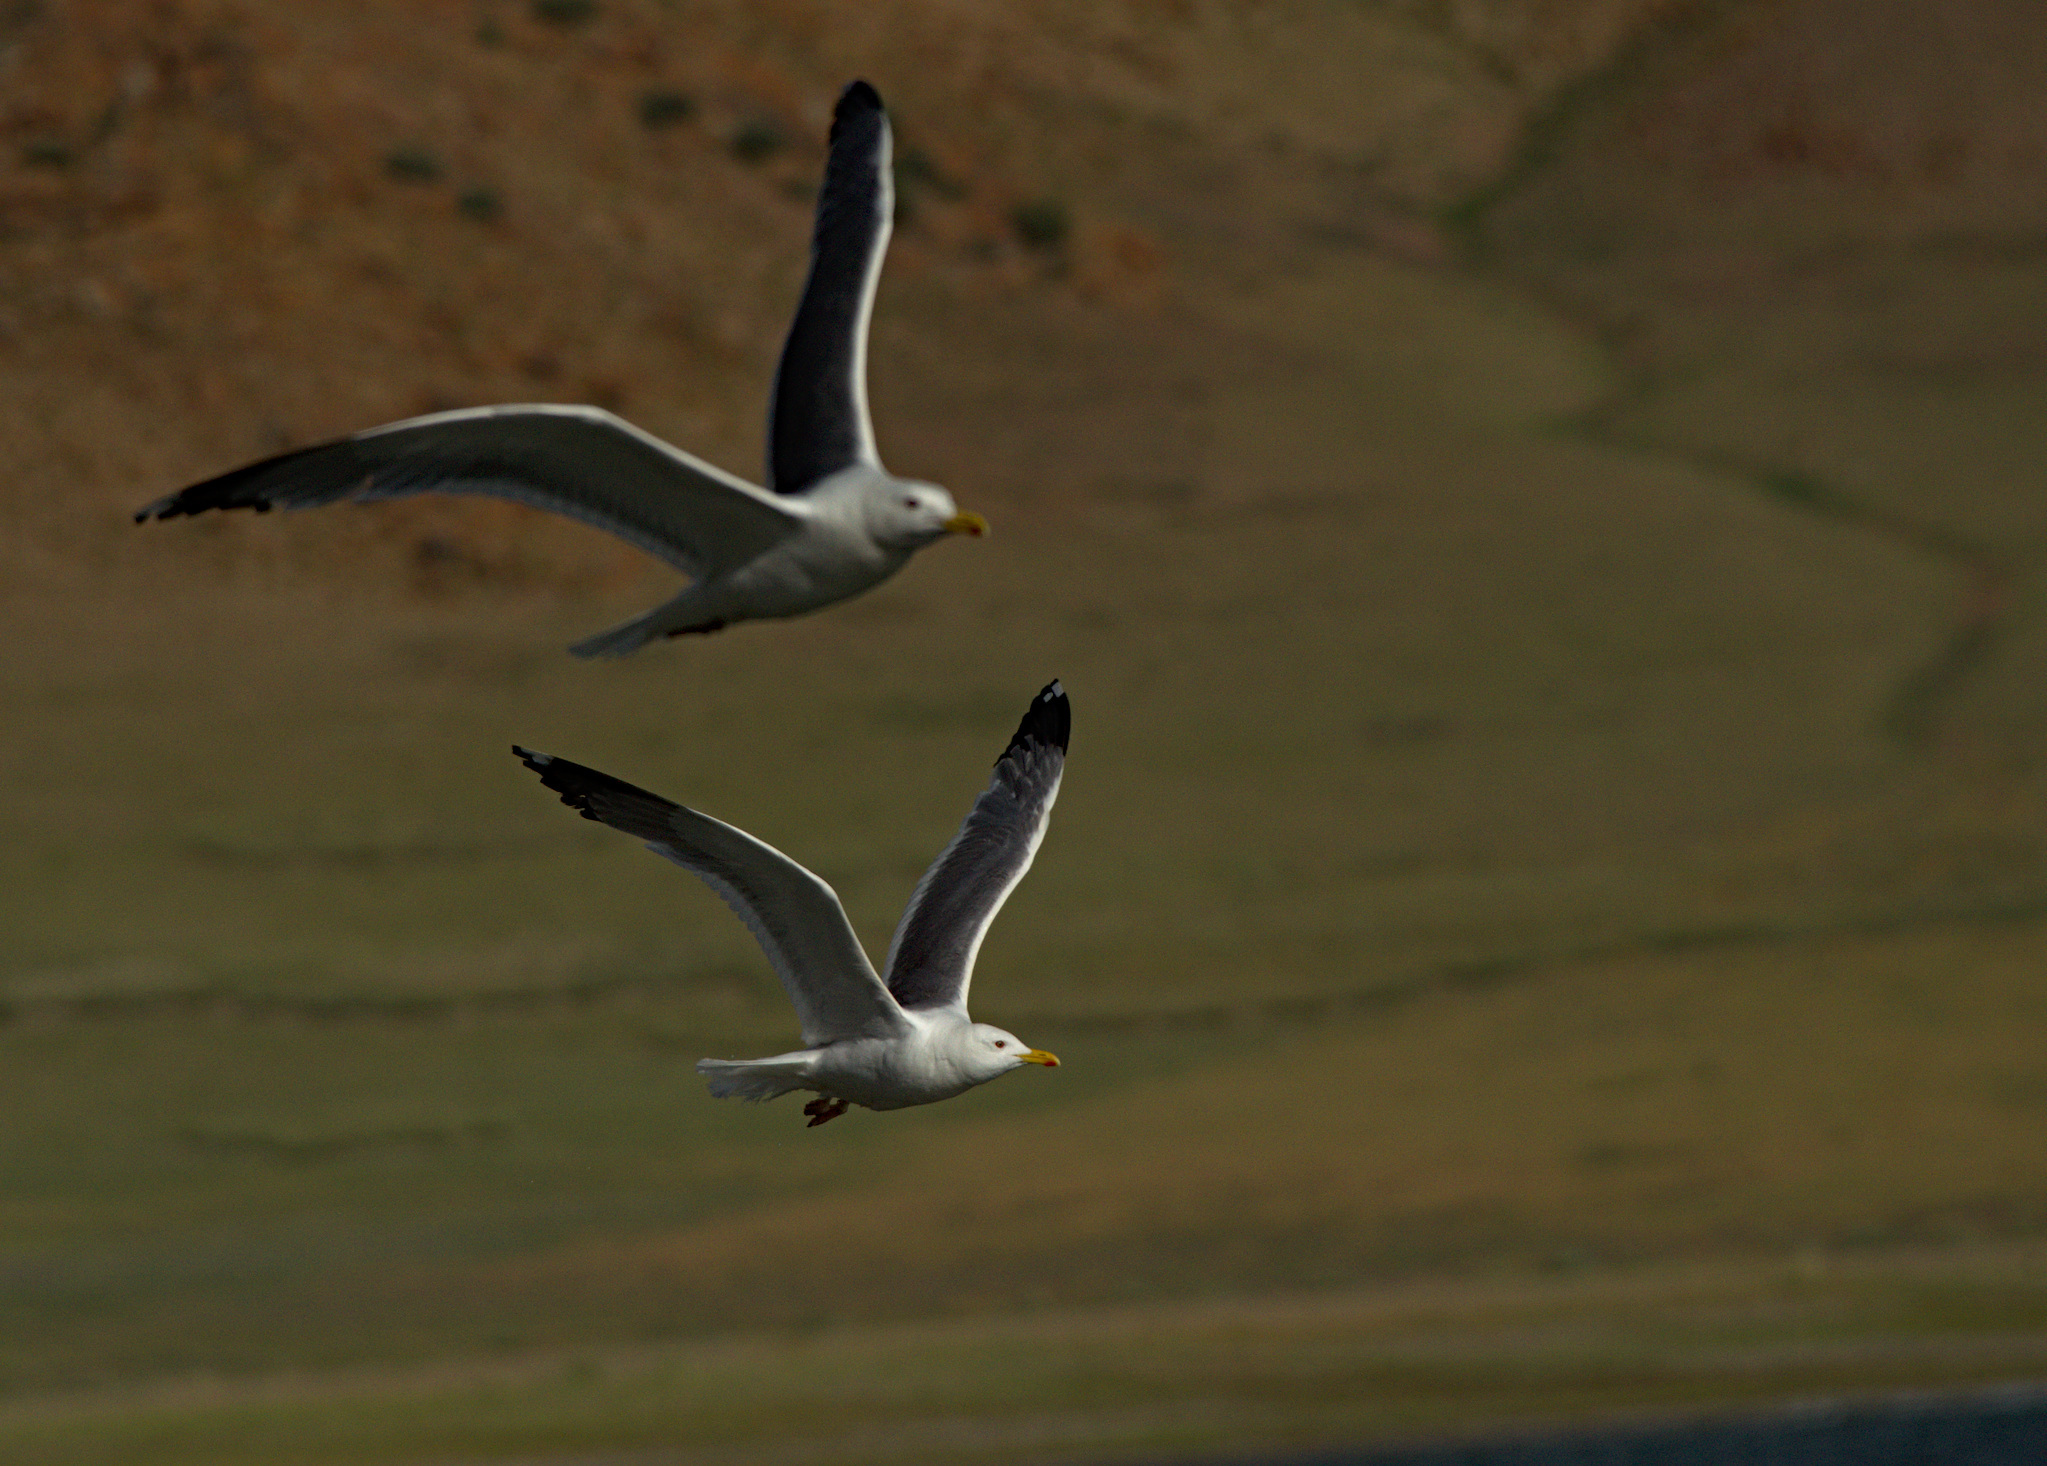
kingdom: Animalia
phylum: Chordata
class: Aves
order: Charadriiformes
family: Laridae
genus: Larus
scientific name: Larus argentatus
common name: Herring gull
